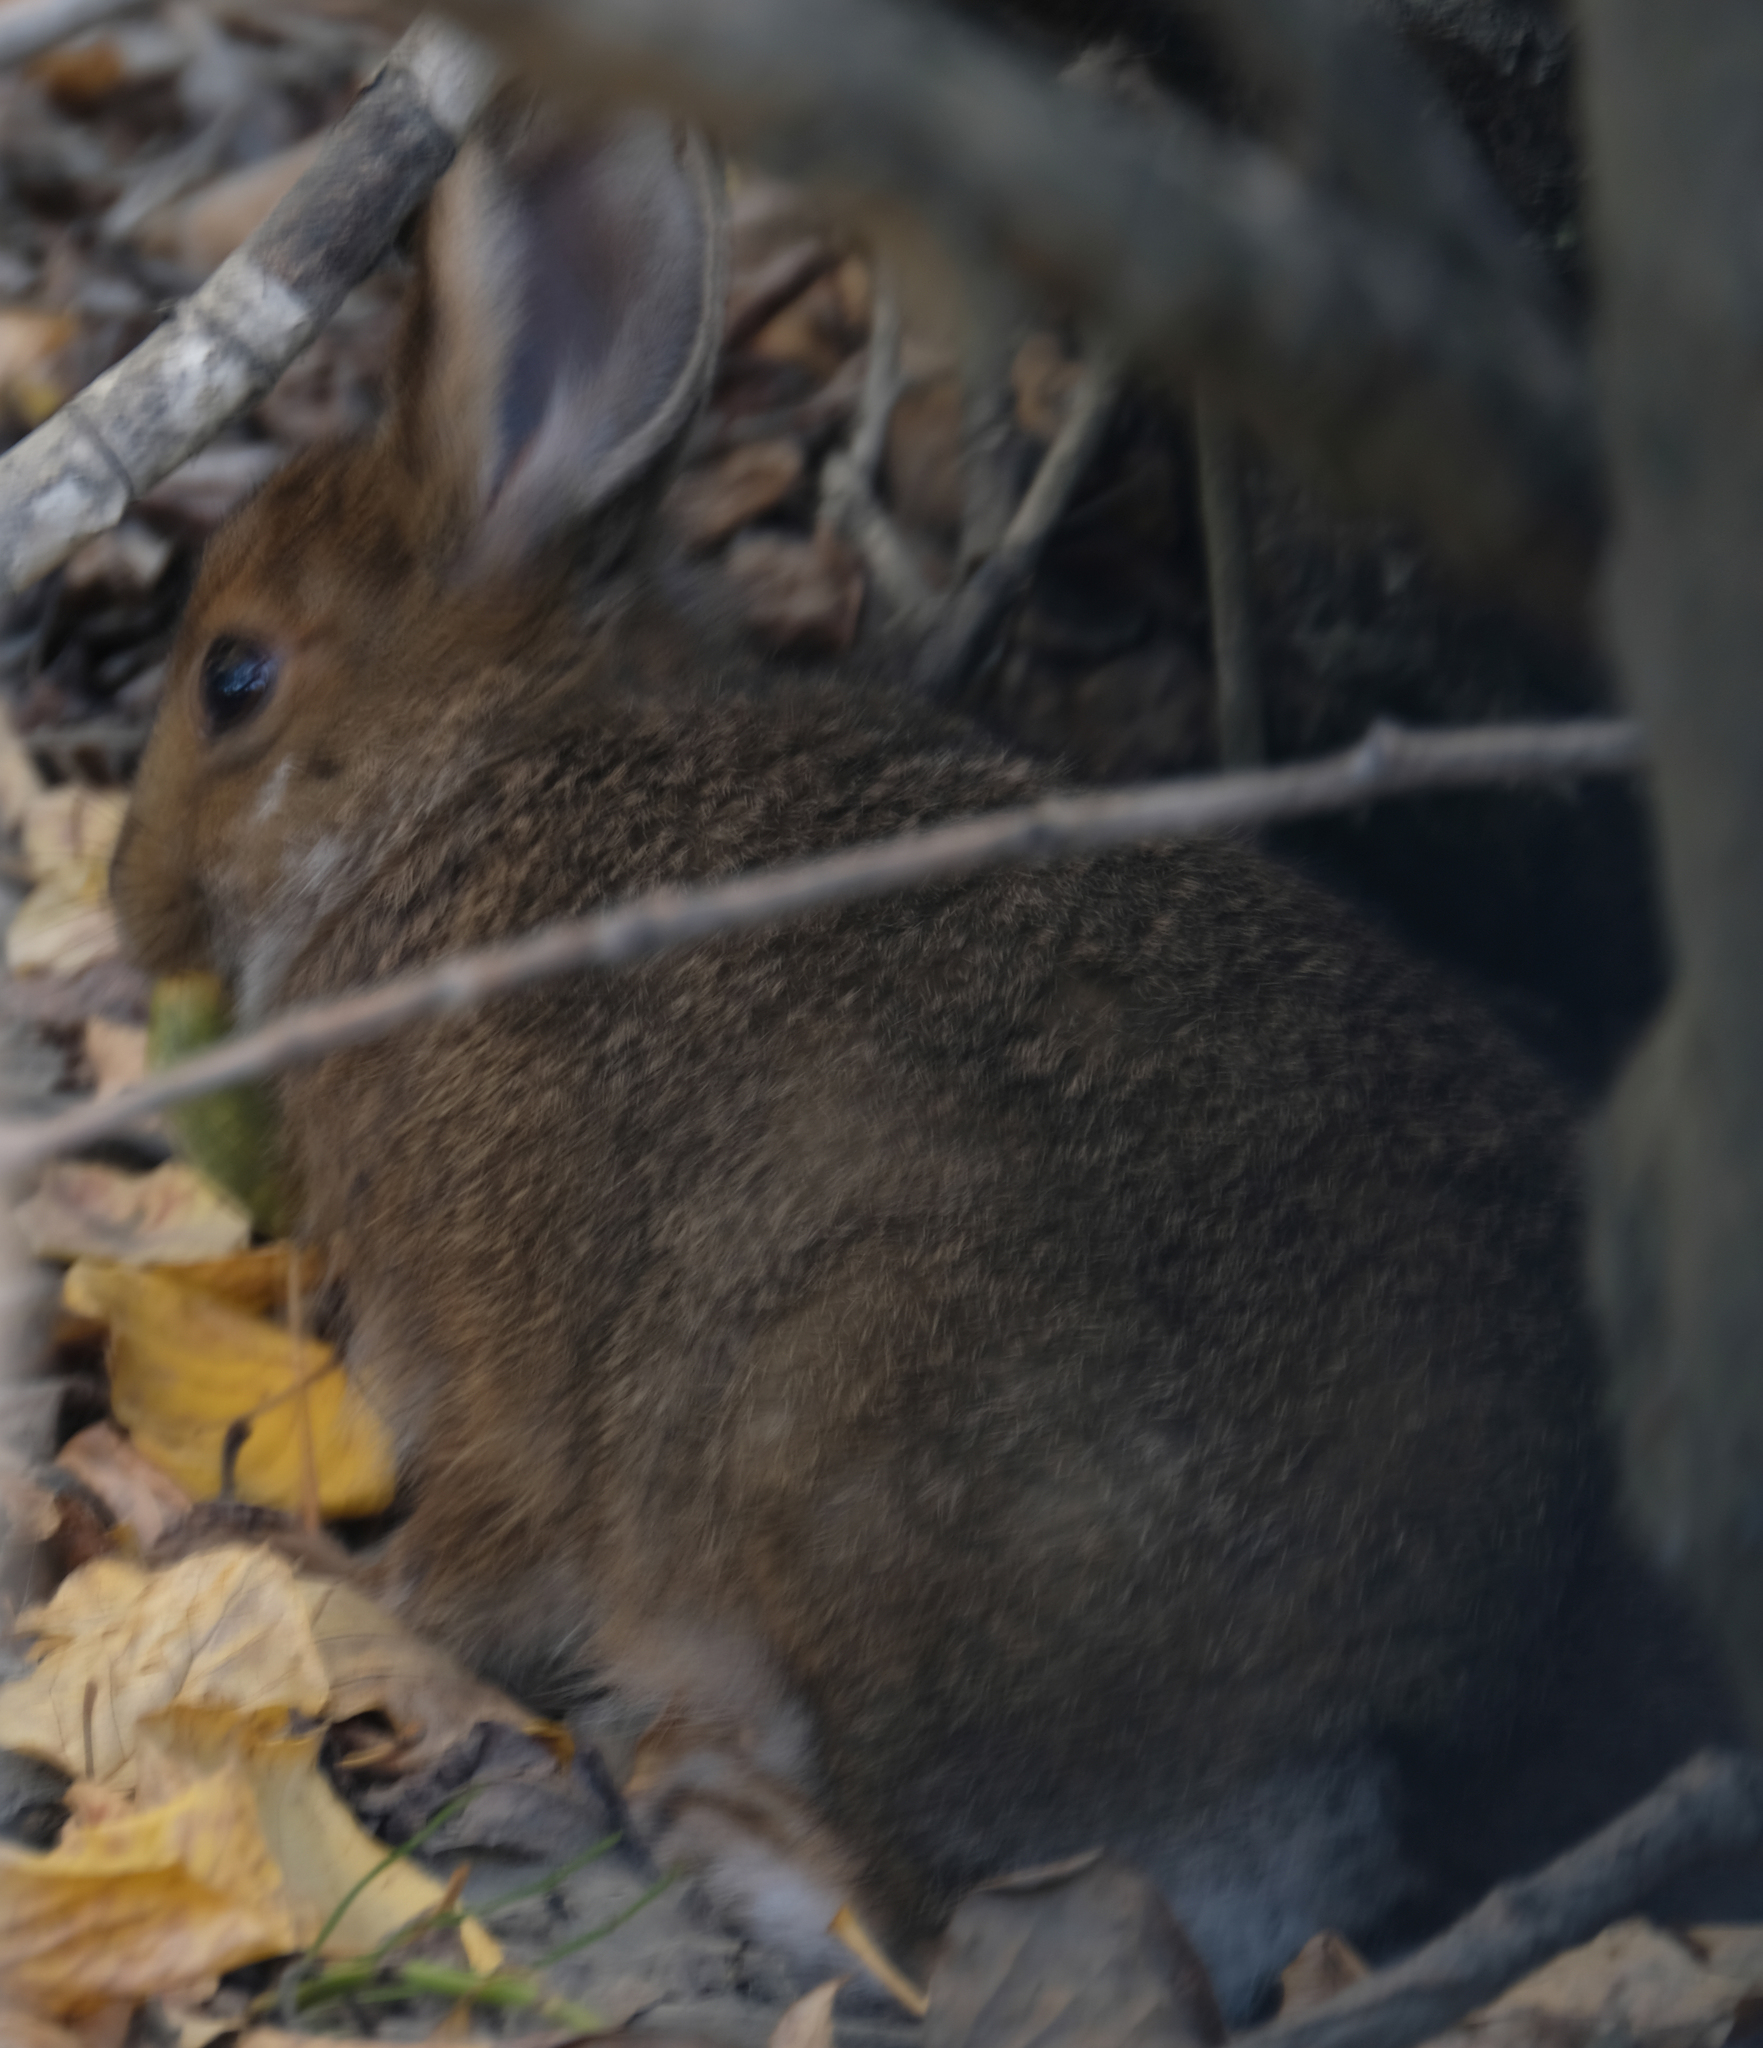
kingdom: Animalia
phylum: Chordata
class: Mammalia
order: Lagomorpha
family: Leporidae
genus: Lepus
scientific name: Lepus americanus
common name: Snowshoe hare
